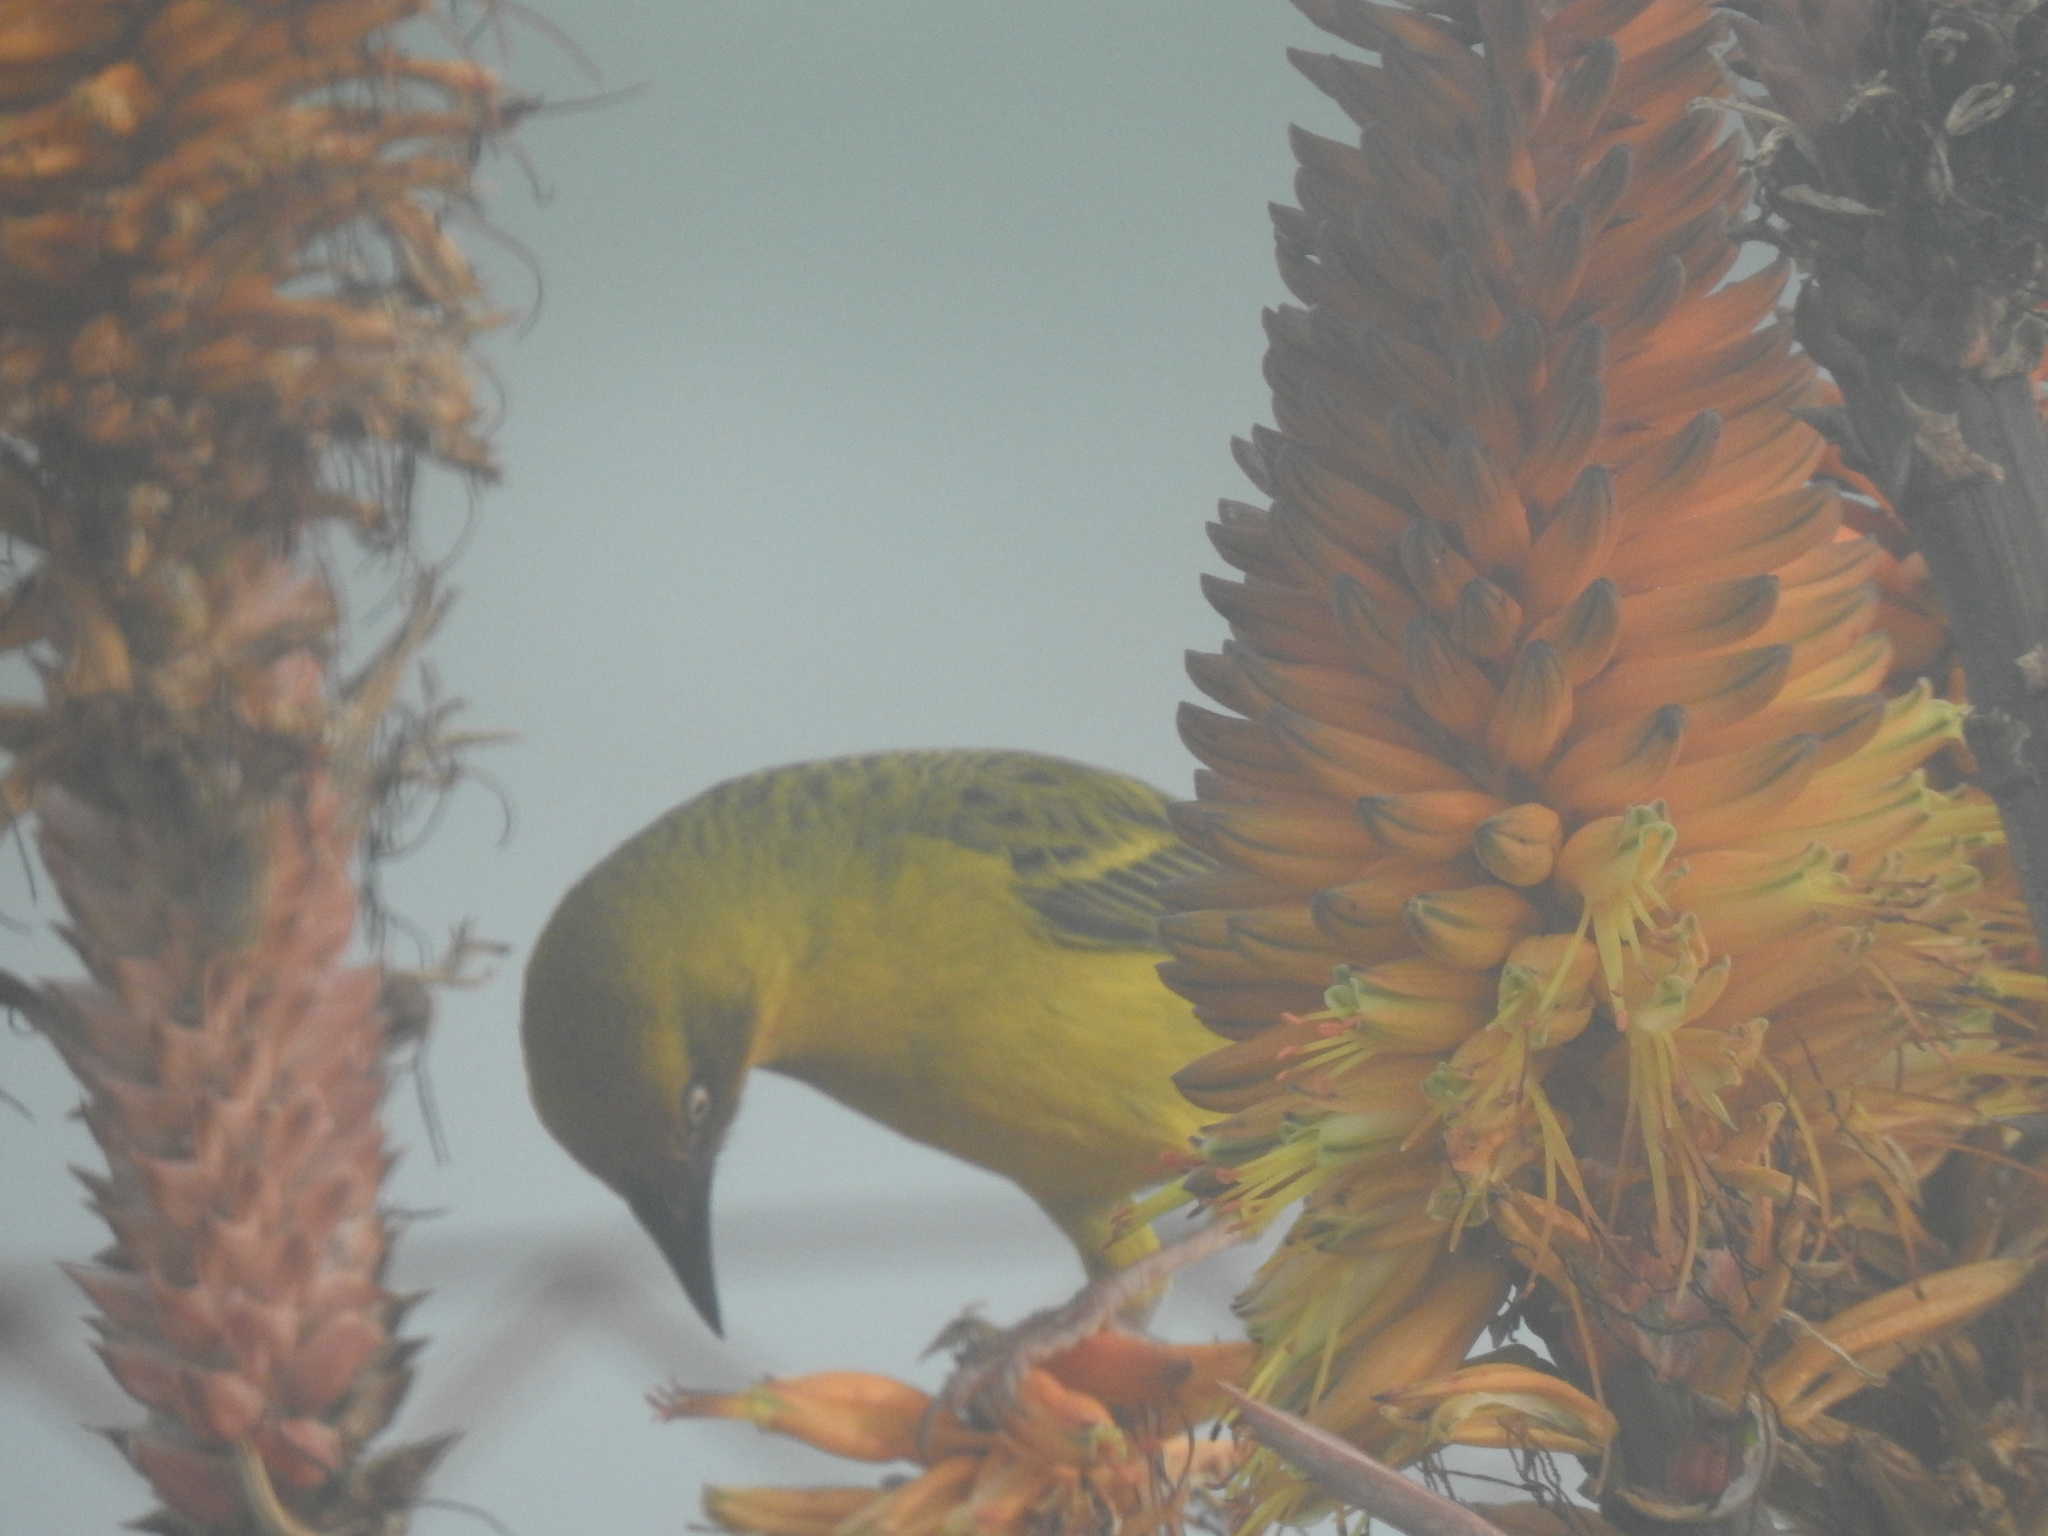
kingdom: Animalia
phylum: Chordata
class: Aves
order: Passeriformes
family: Ploceidae
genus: Ploceus
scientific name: Ploceus capensis
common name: Cape weaver
